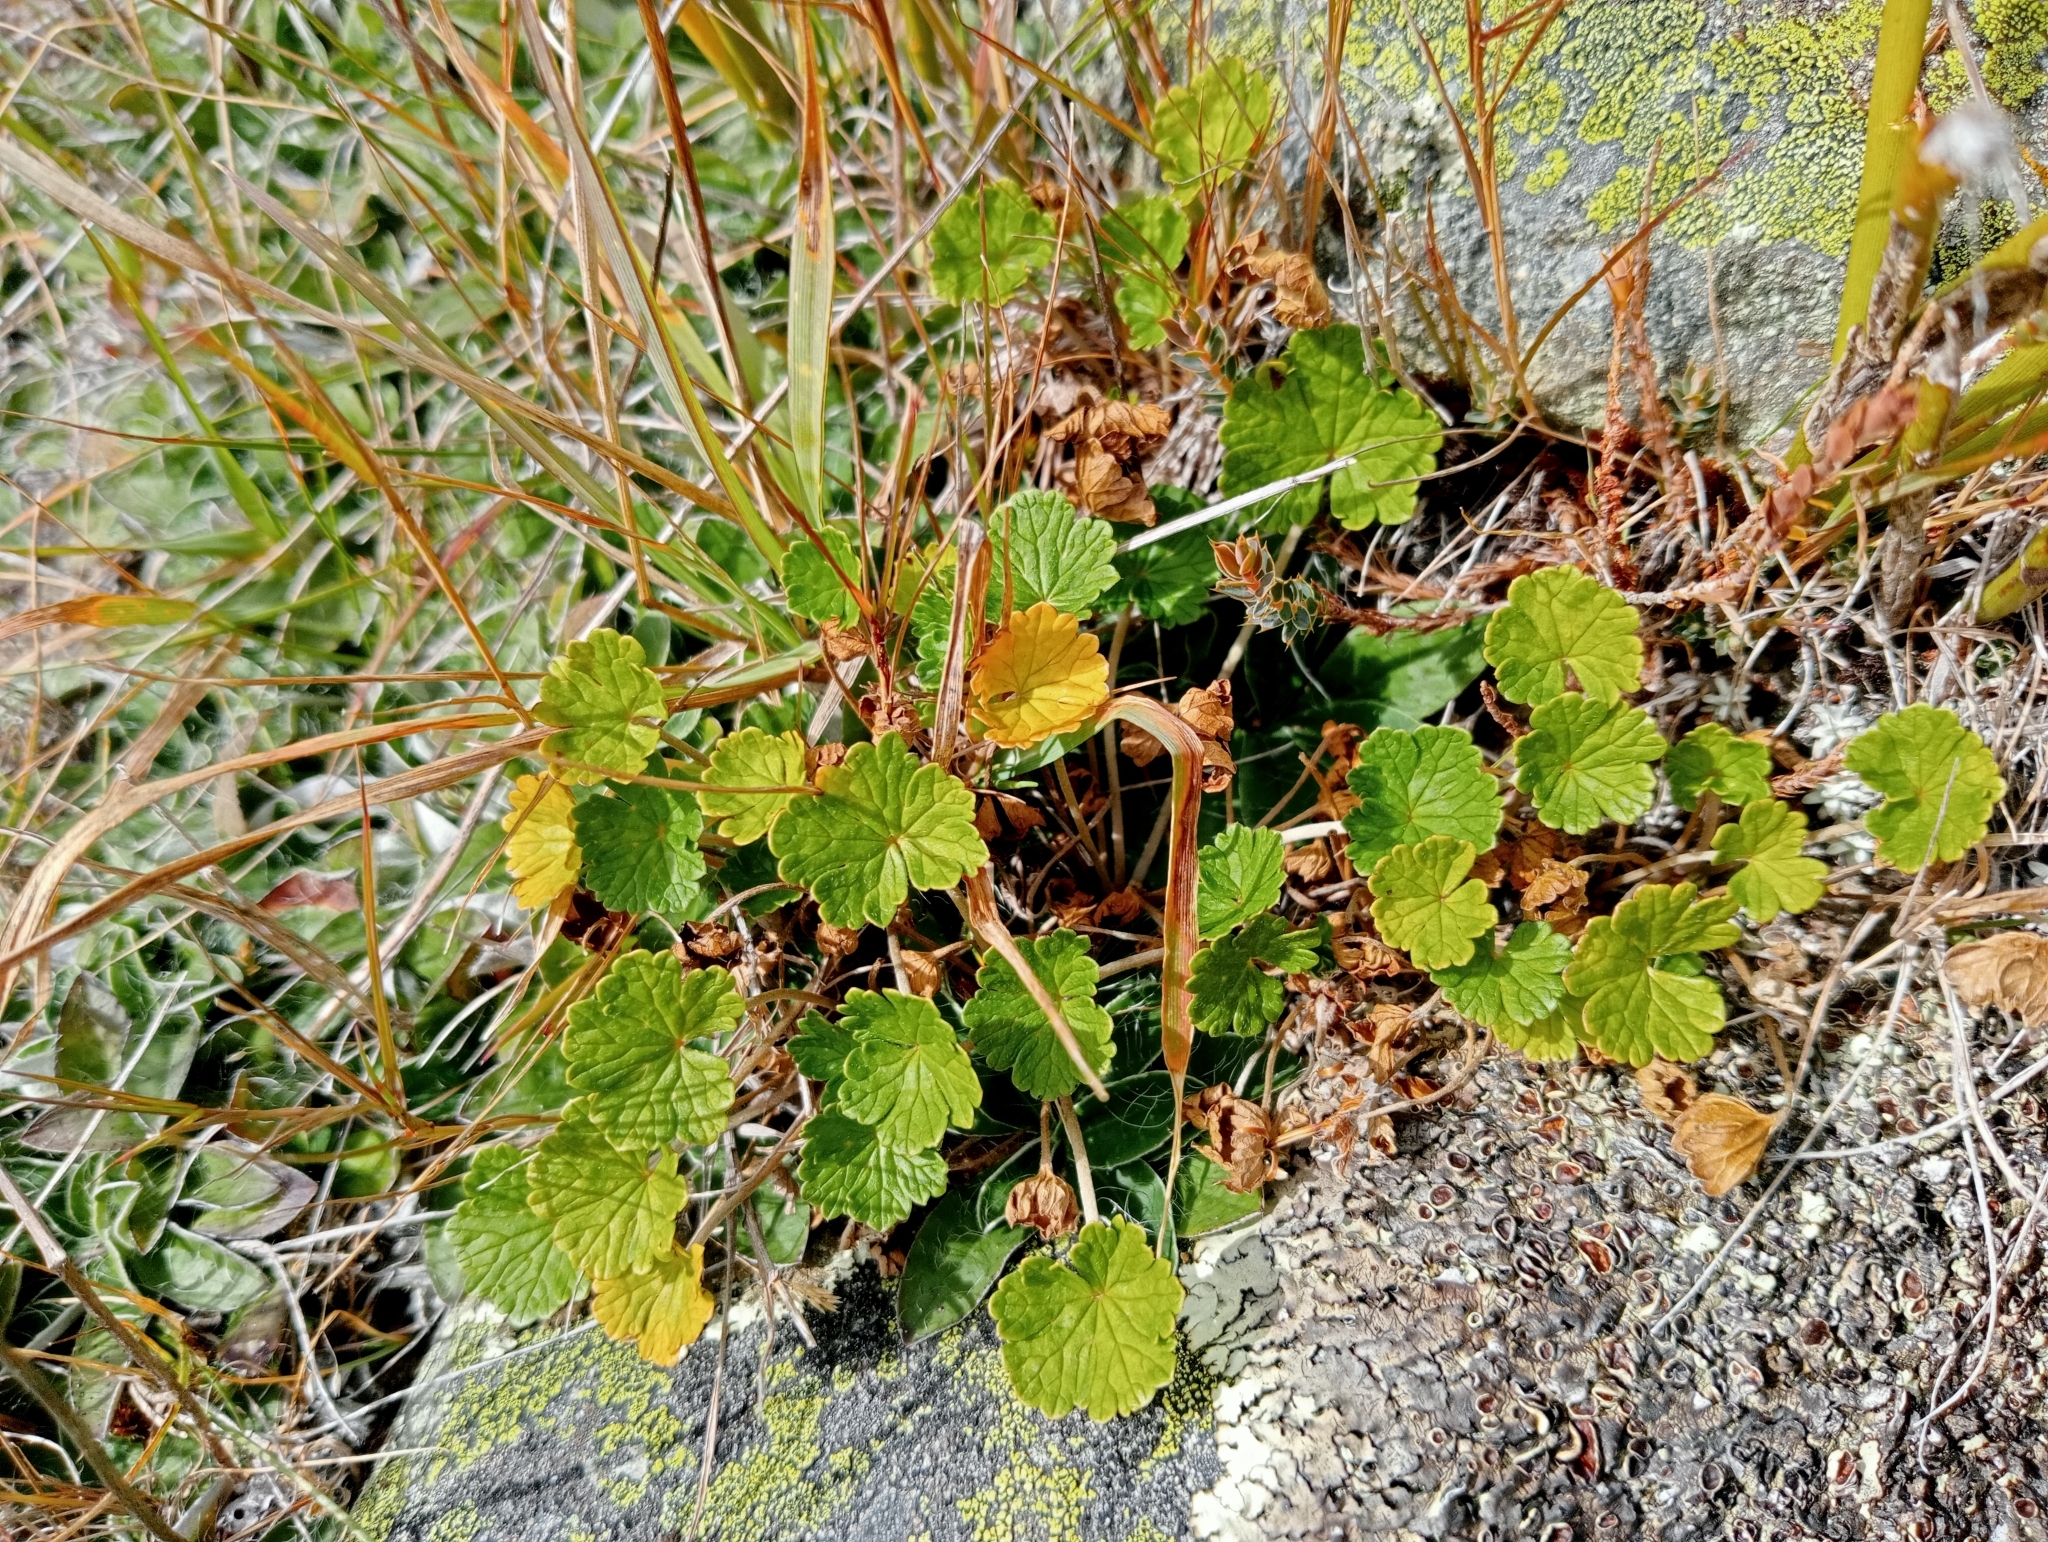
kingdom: Plantae
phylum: Tracheophyta
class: Magnoliopsida
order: Geraniales
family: Geraniaceae
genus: Geranium
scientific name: Geranium brevicaule
